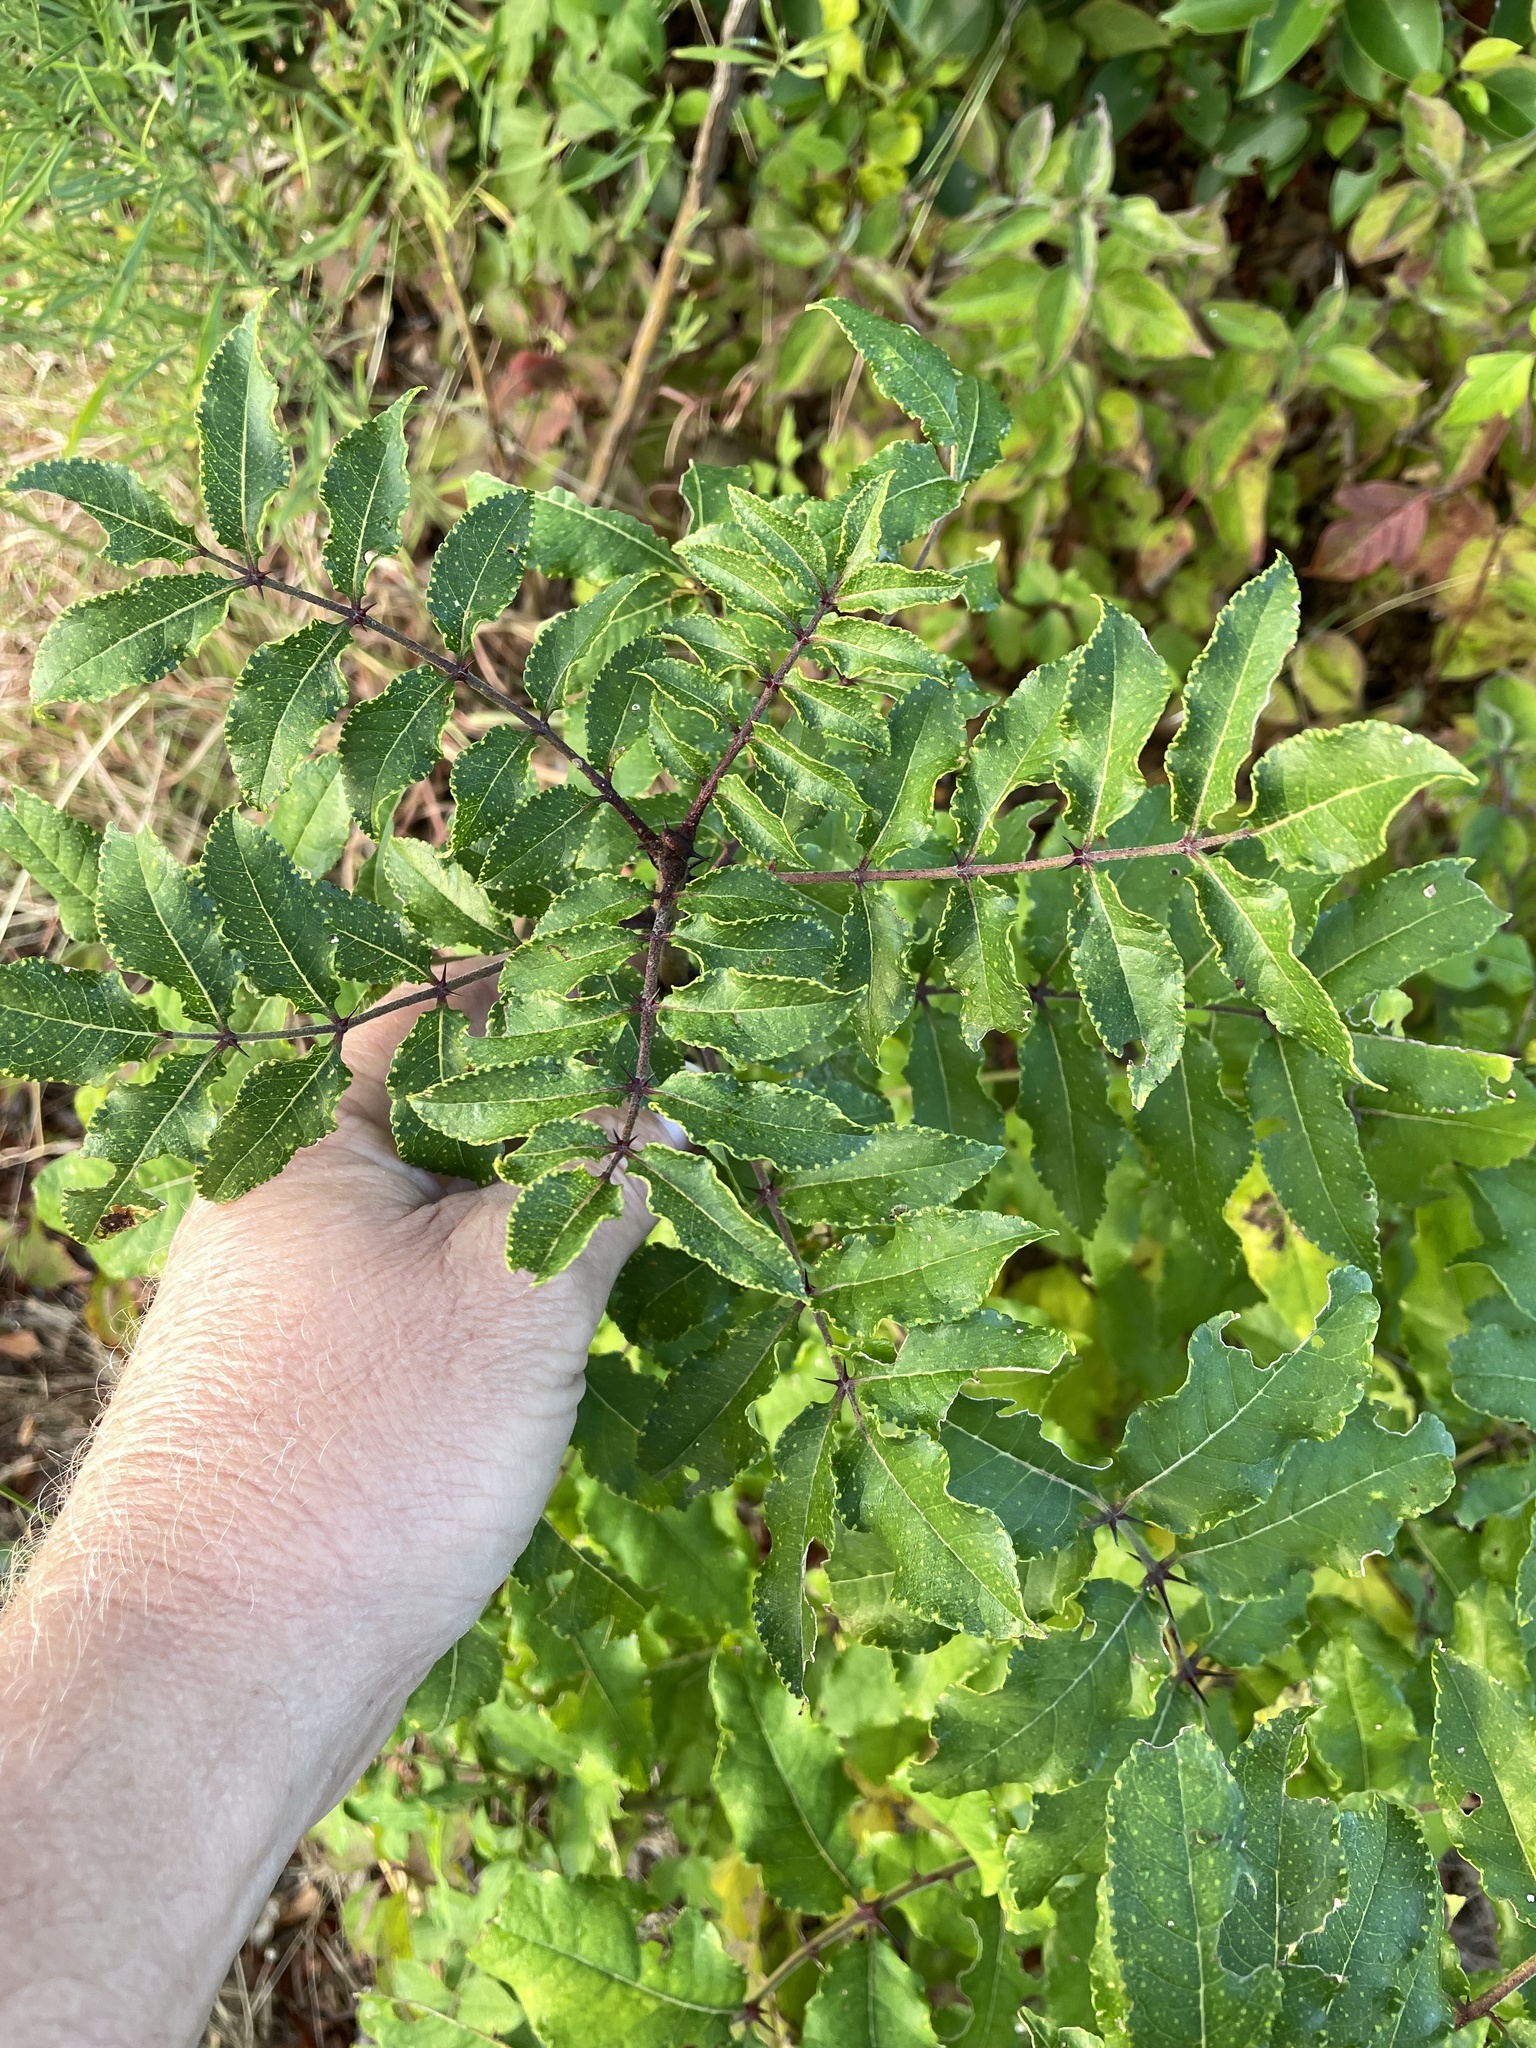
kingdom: Plantae
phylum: Tracheophyta
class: Magnoliopsida
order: Sapindales
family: Rutaceae
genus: Zanthoxylum
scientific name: Zanthoxylum clava-herculis
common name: Hercules'-club
